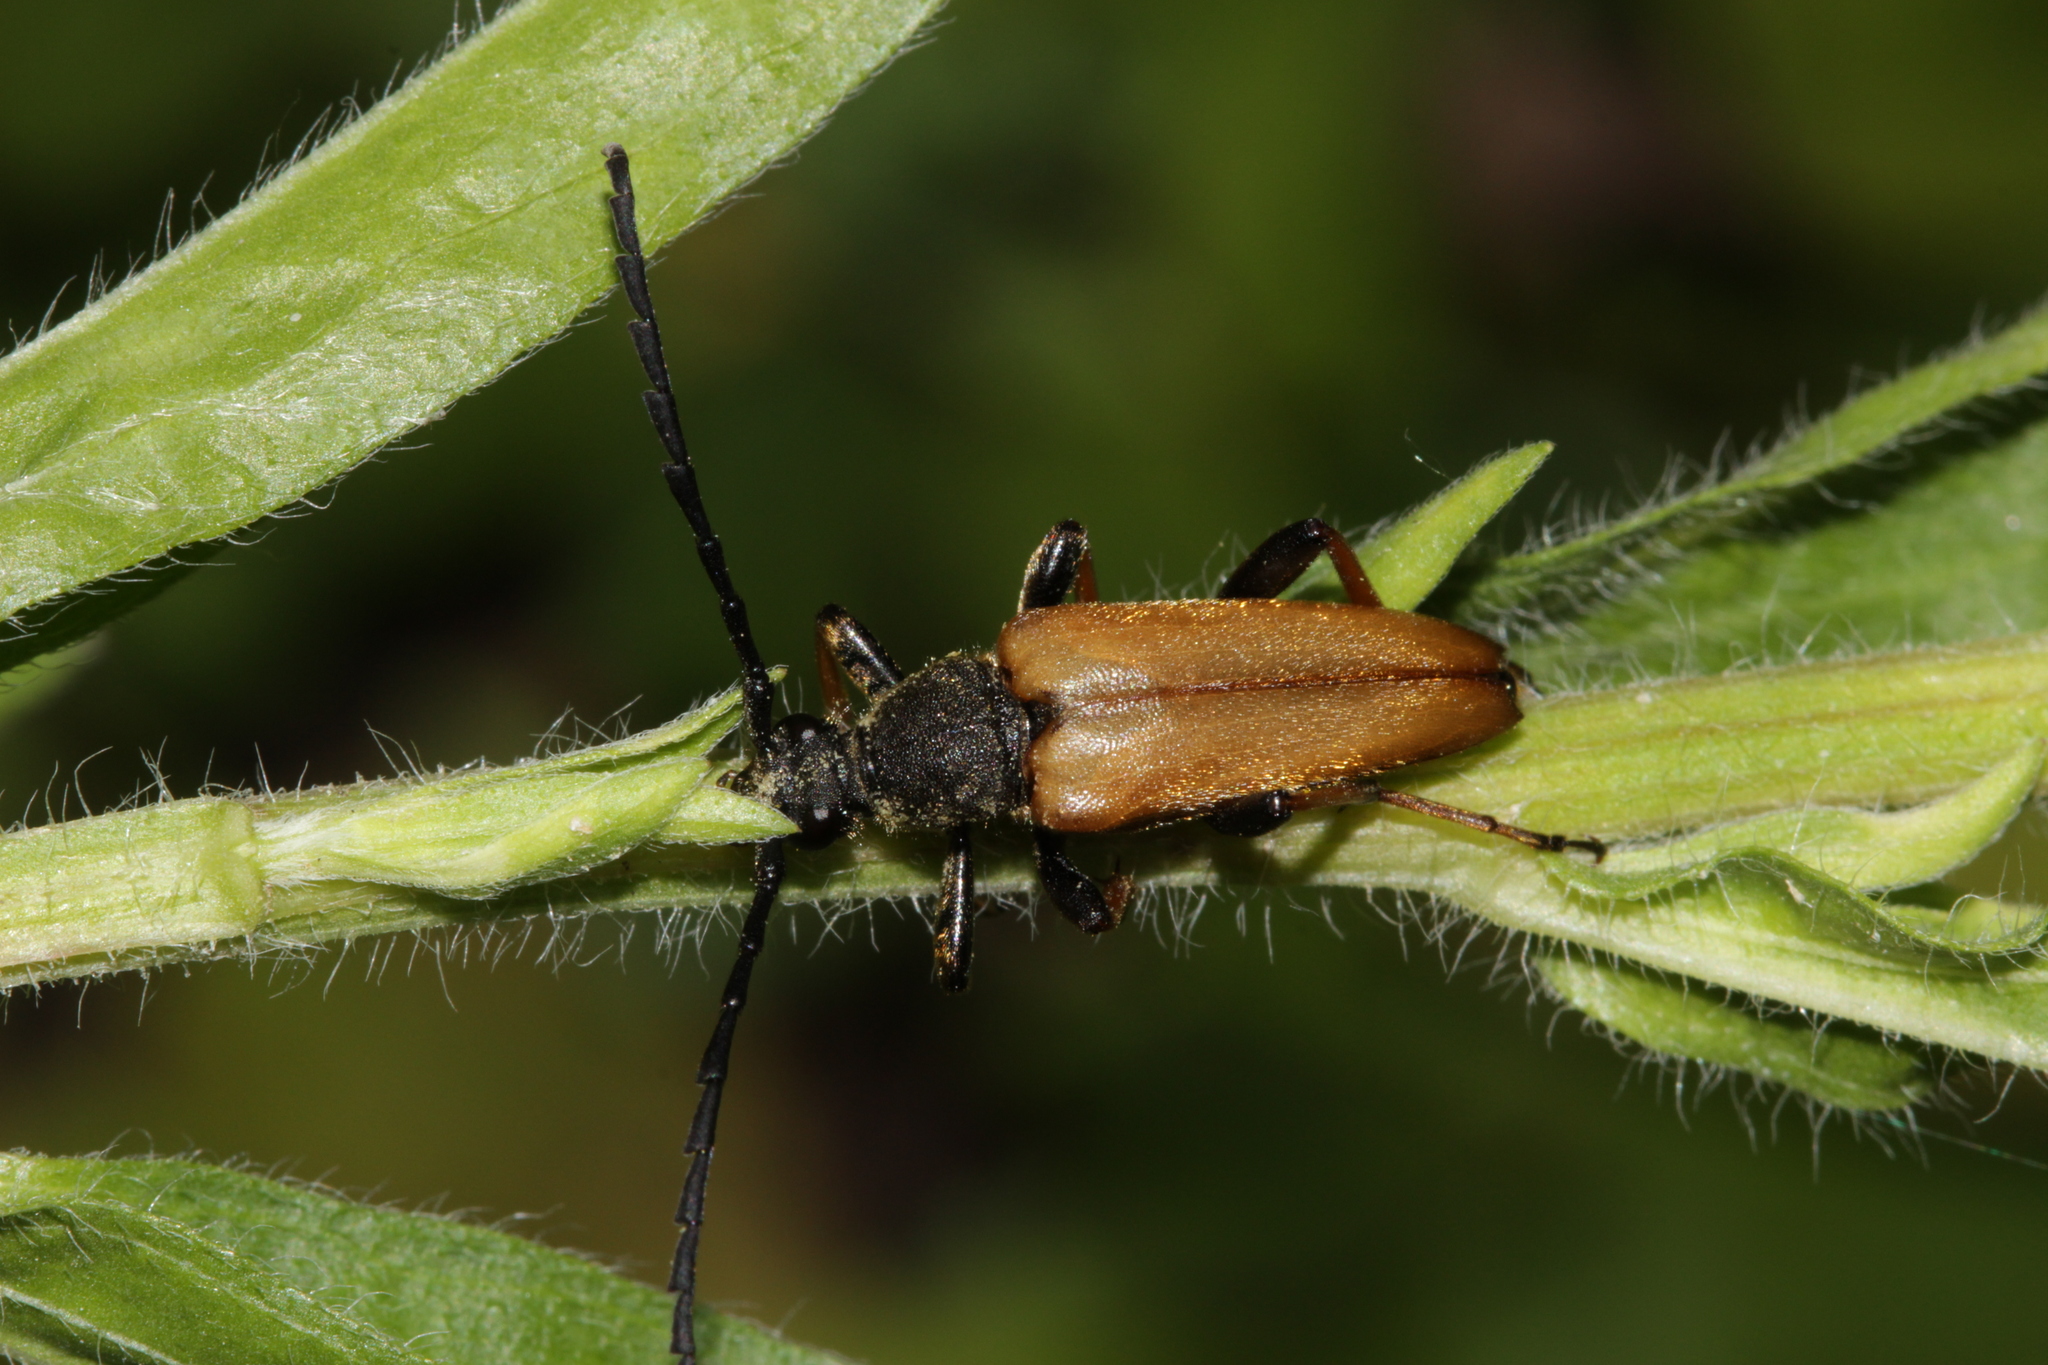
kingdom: Animalia
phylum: Arthropoda
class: Insecta
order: Coleoptera
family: Cerambycidae
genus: Stictoleptura
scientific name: Stictoleptura rubra
